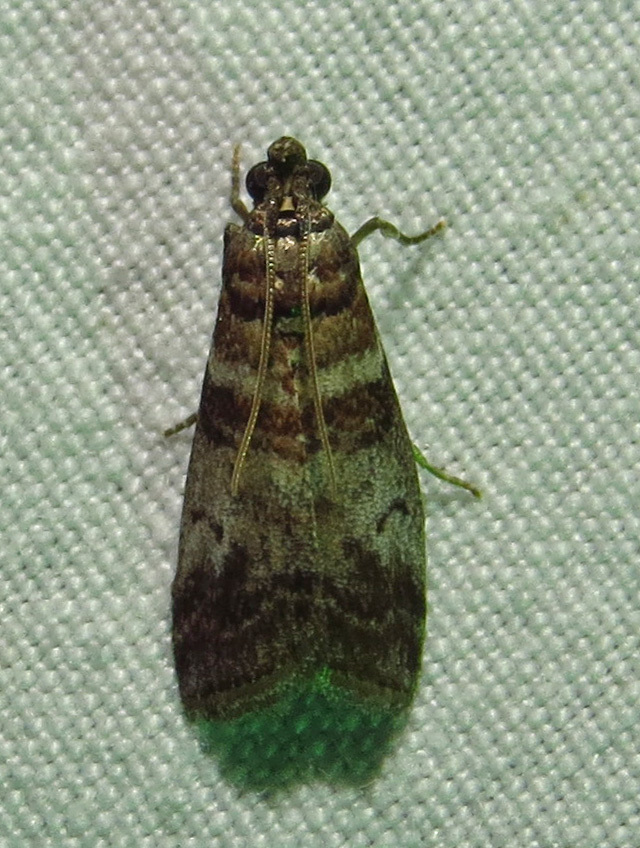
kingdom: Animalia
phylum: Arthropoda
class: Insecta
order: Lepidoptera
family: Pyralidae
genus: Sciota
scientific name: Sciota uvinella
